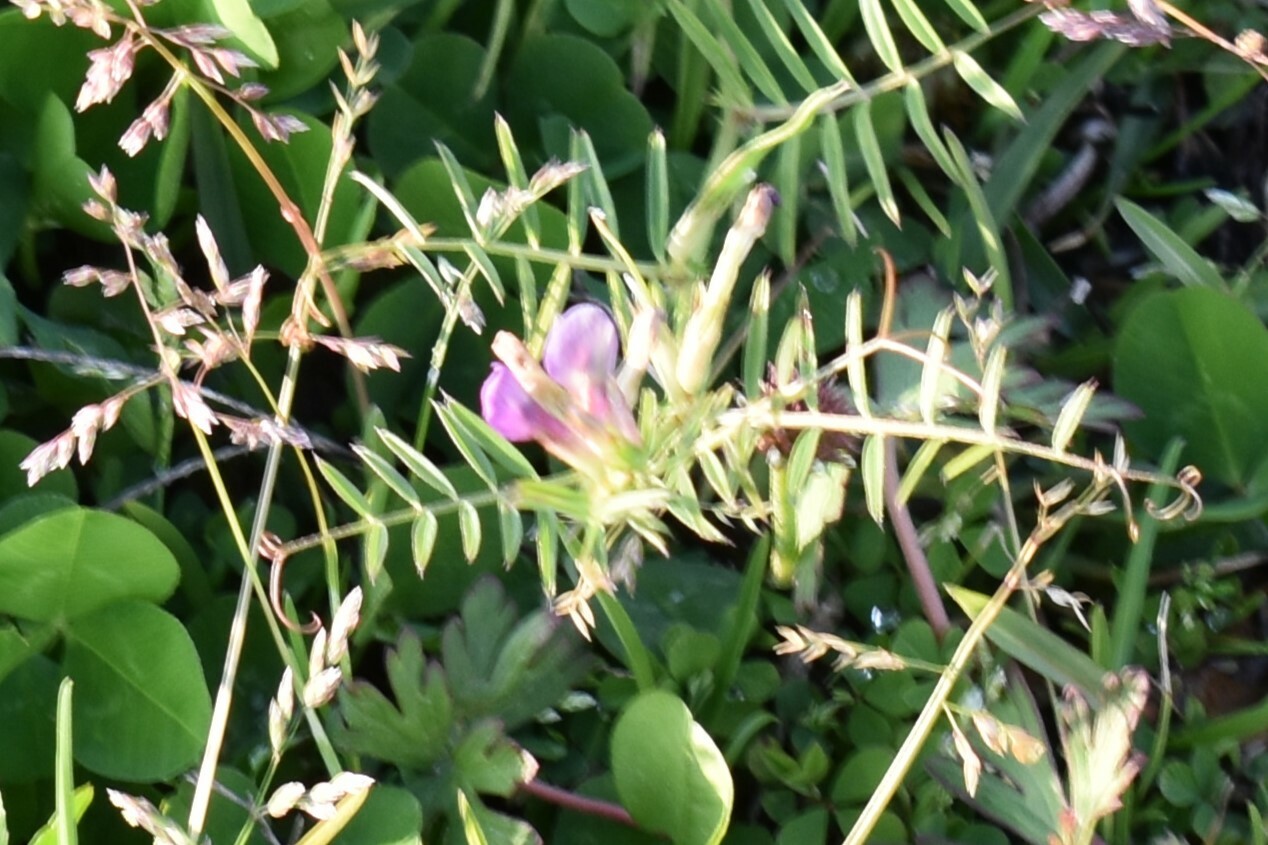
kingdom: Plantae
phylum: Tracheophyta
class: Magnoliopsida
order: Fabales
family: Fabaceae
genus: Vicia
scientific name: Vicia sativa
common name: Garden vetch
